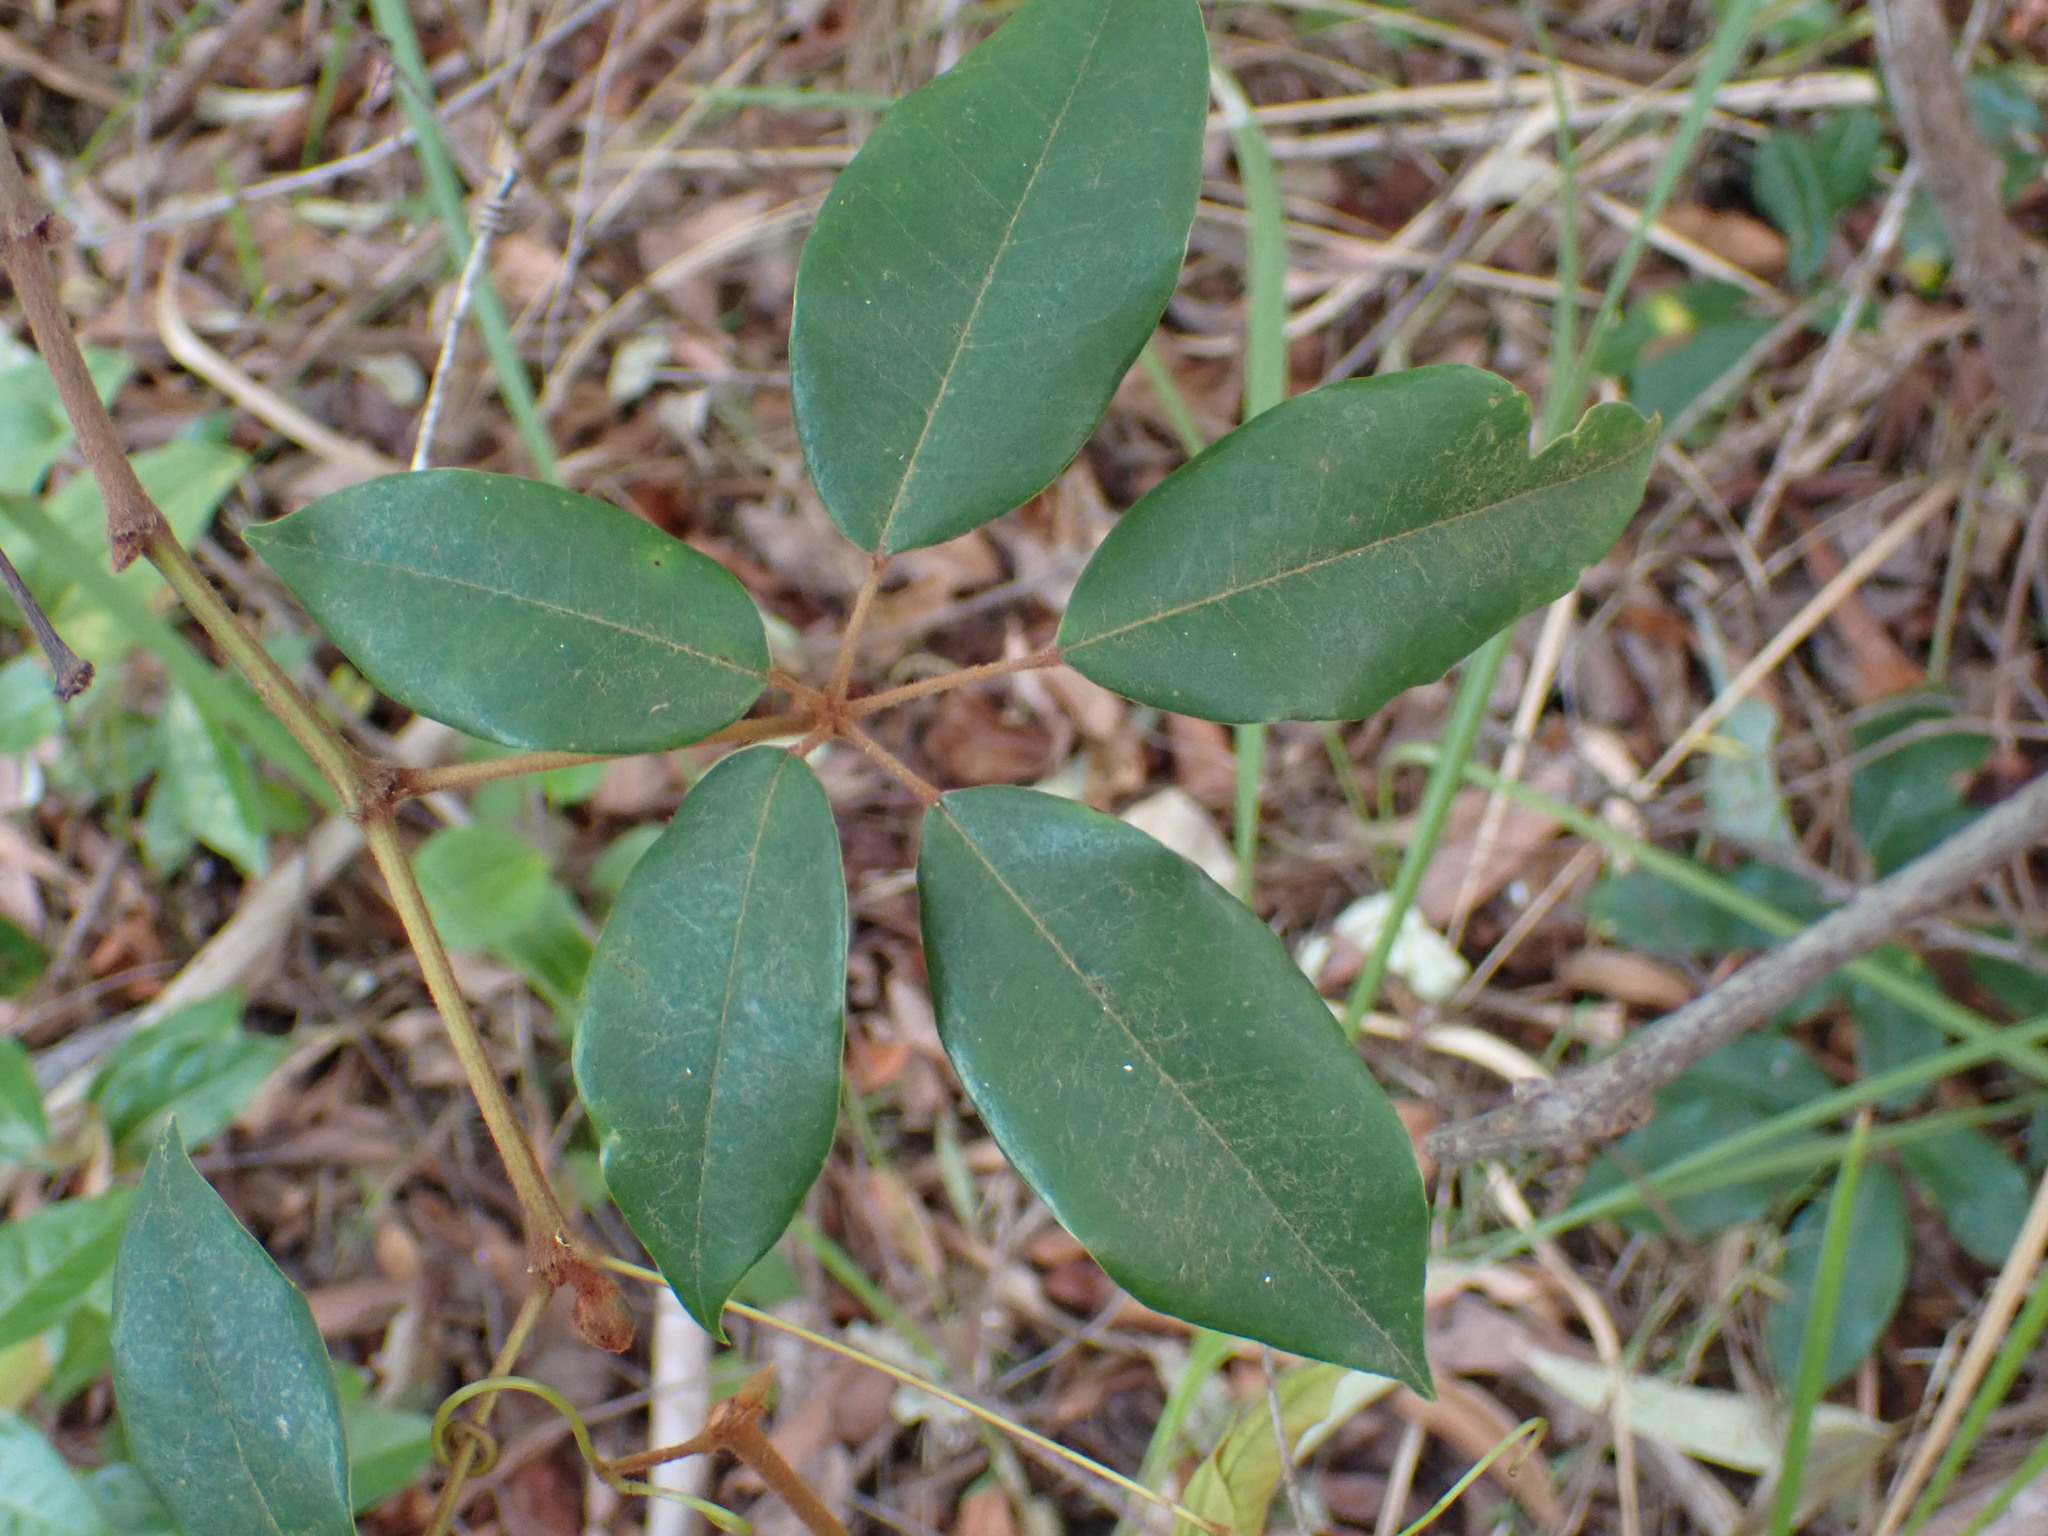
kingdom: Plantae
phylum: Tracheophyta
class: Magnoliopsida
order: Vitales
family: Vitaceae
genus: Nothocissus
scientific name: Nothocissus hypoglauca
